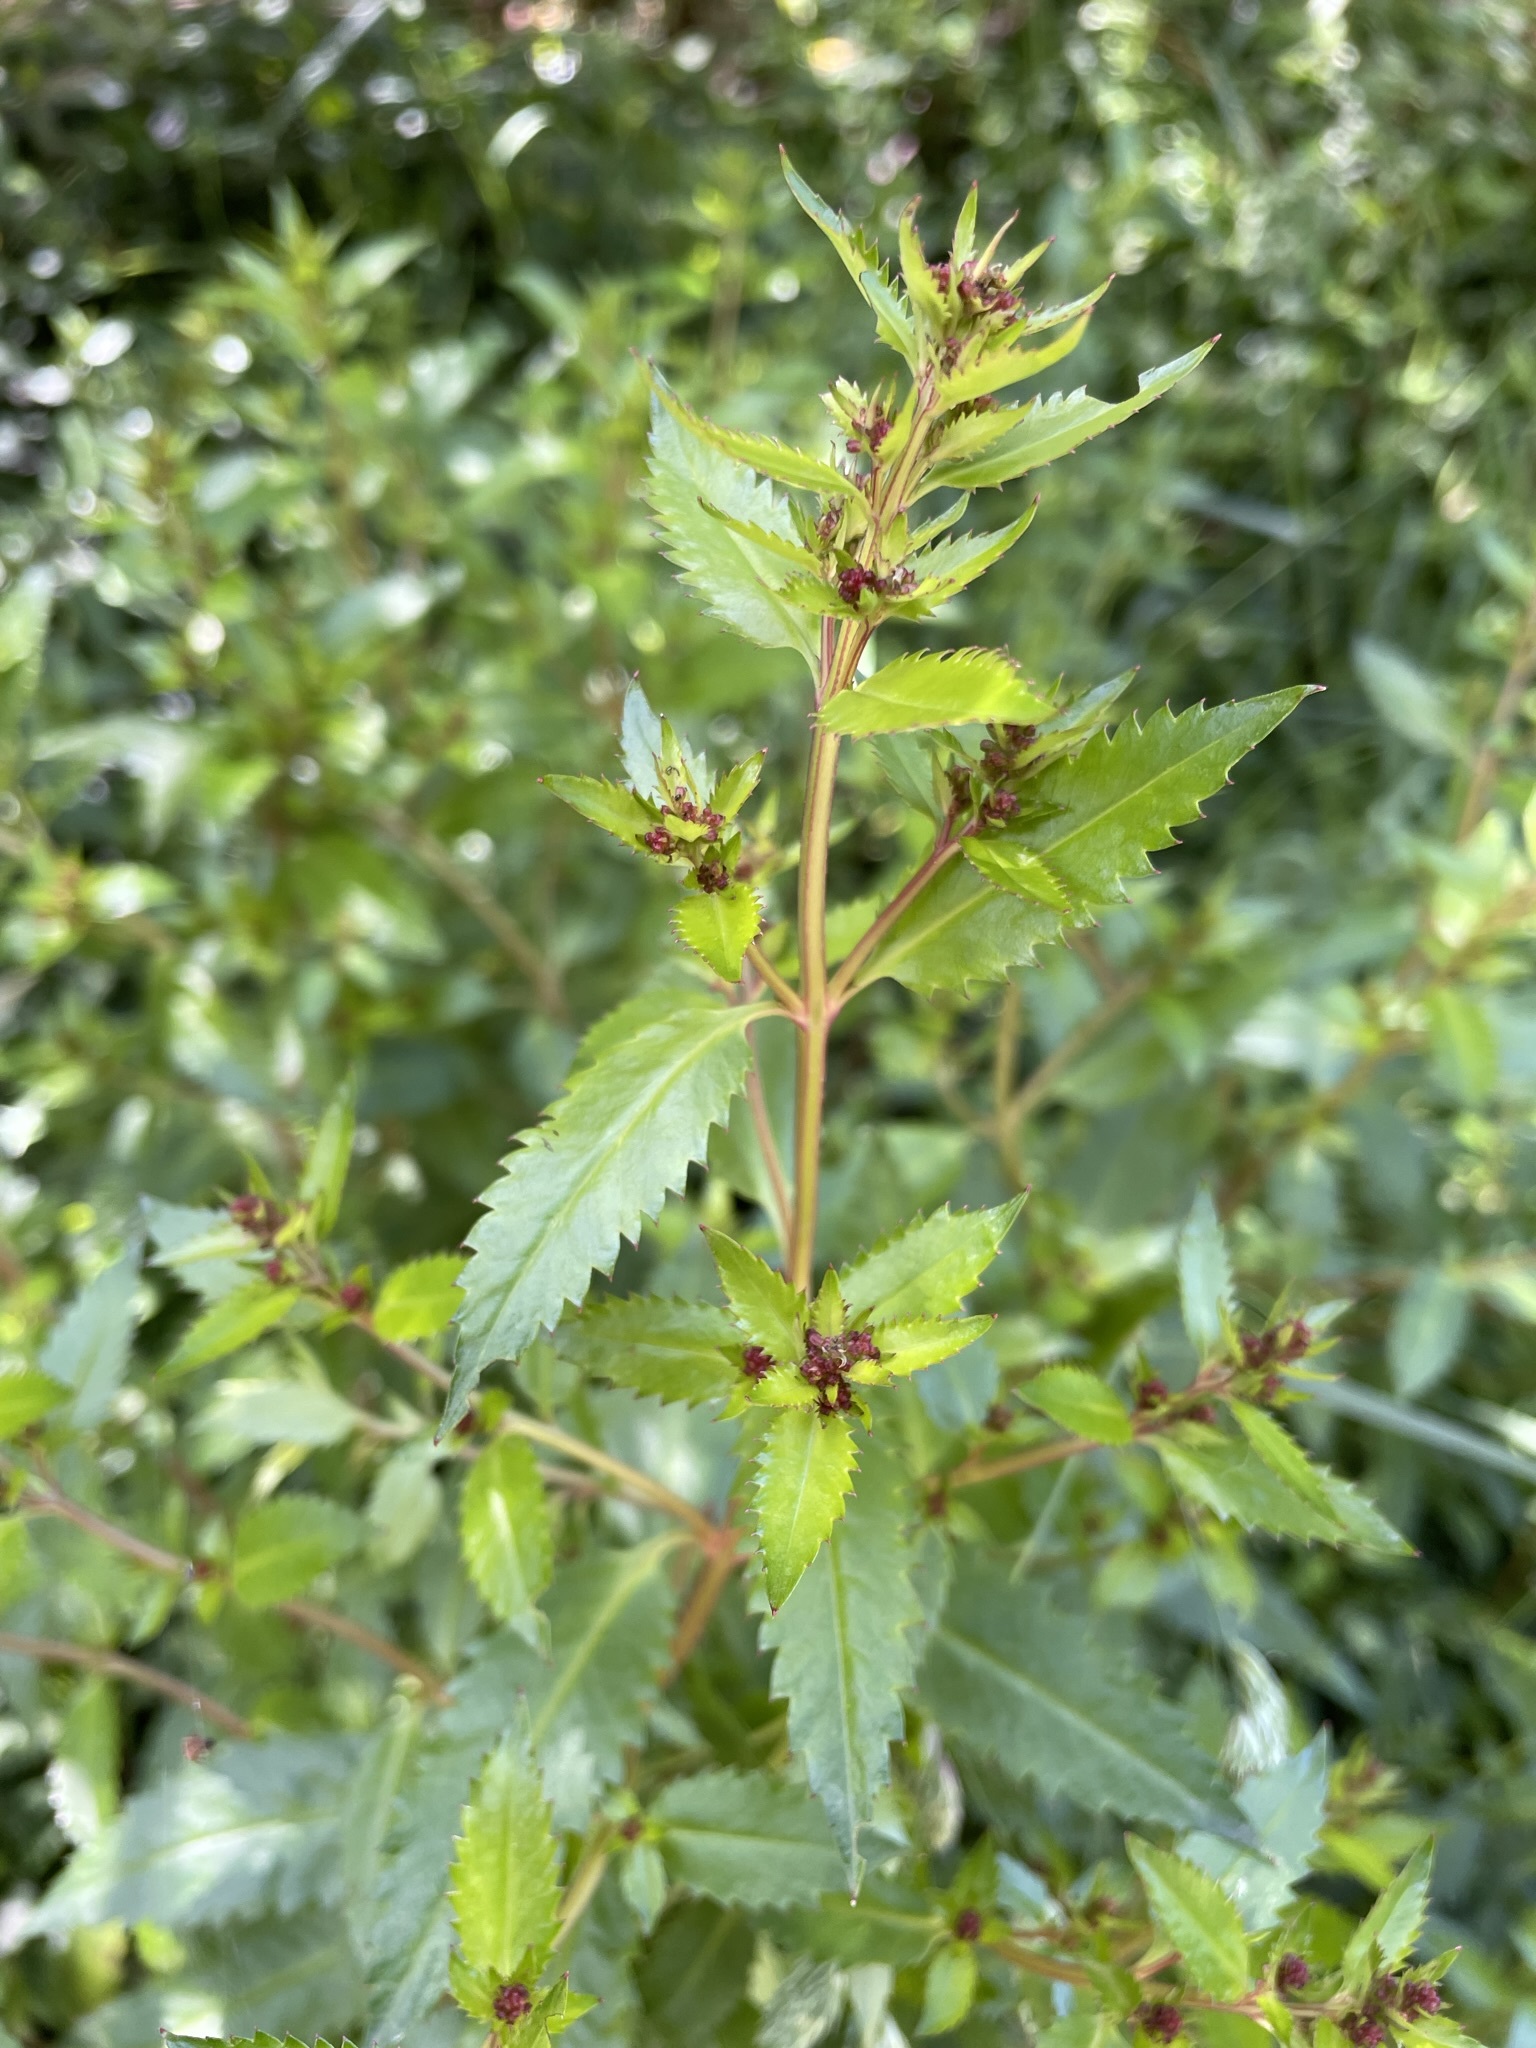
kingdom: Plantae
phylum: Tracheophyta
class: Magnoliopsida
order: Saxifragales
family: Haloragaceae
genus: Haloragis
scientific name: Haloragis erecta
